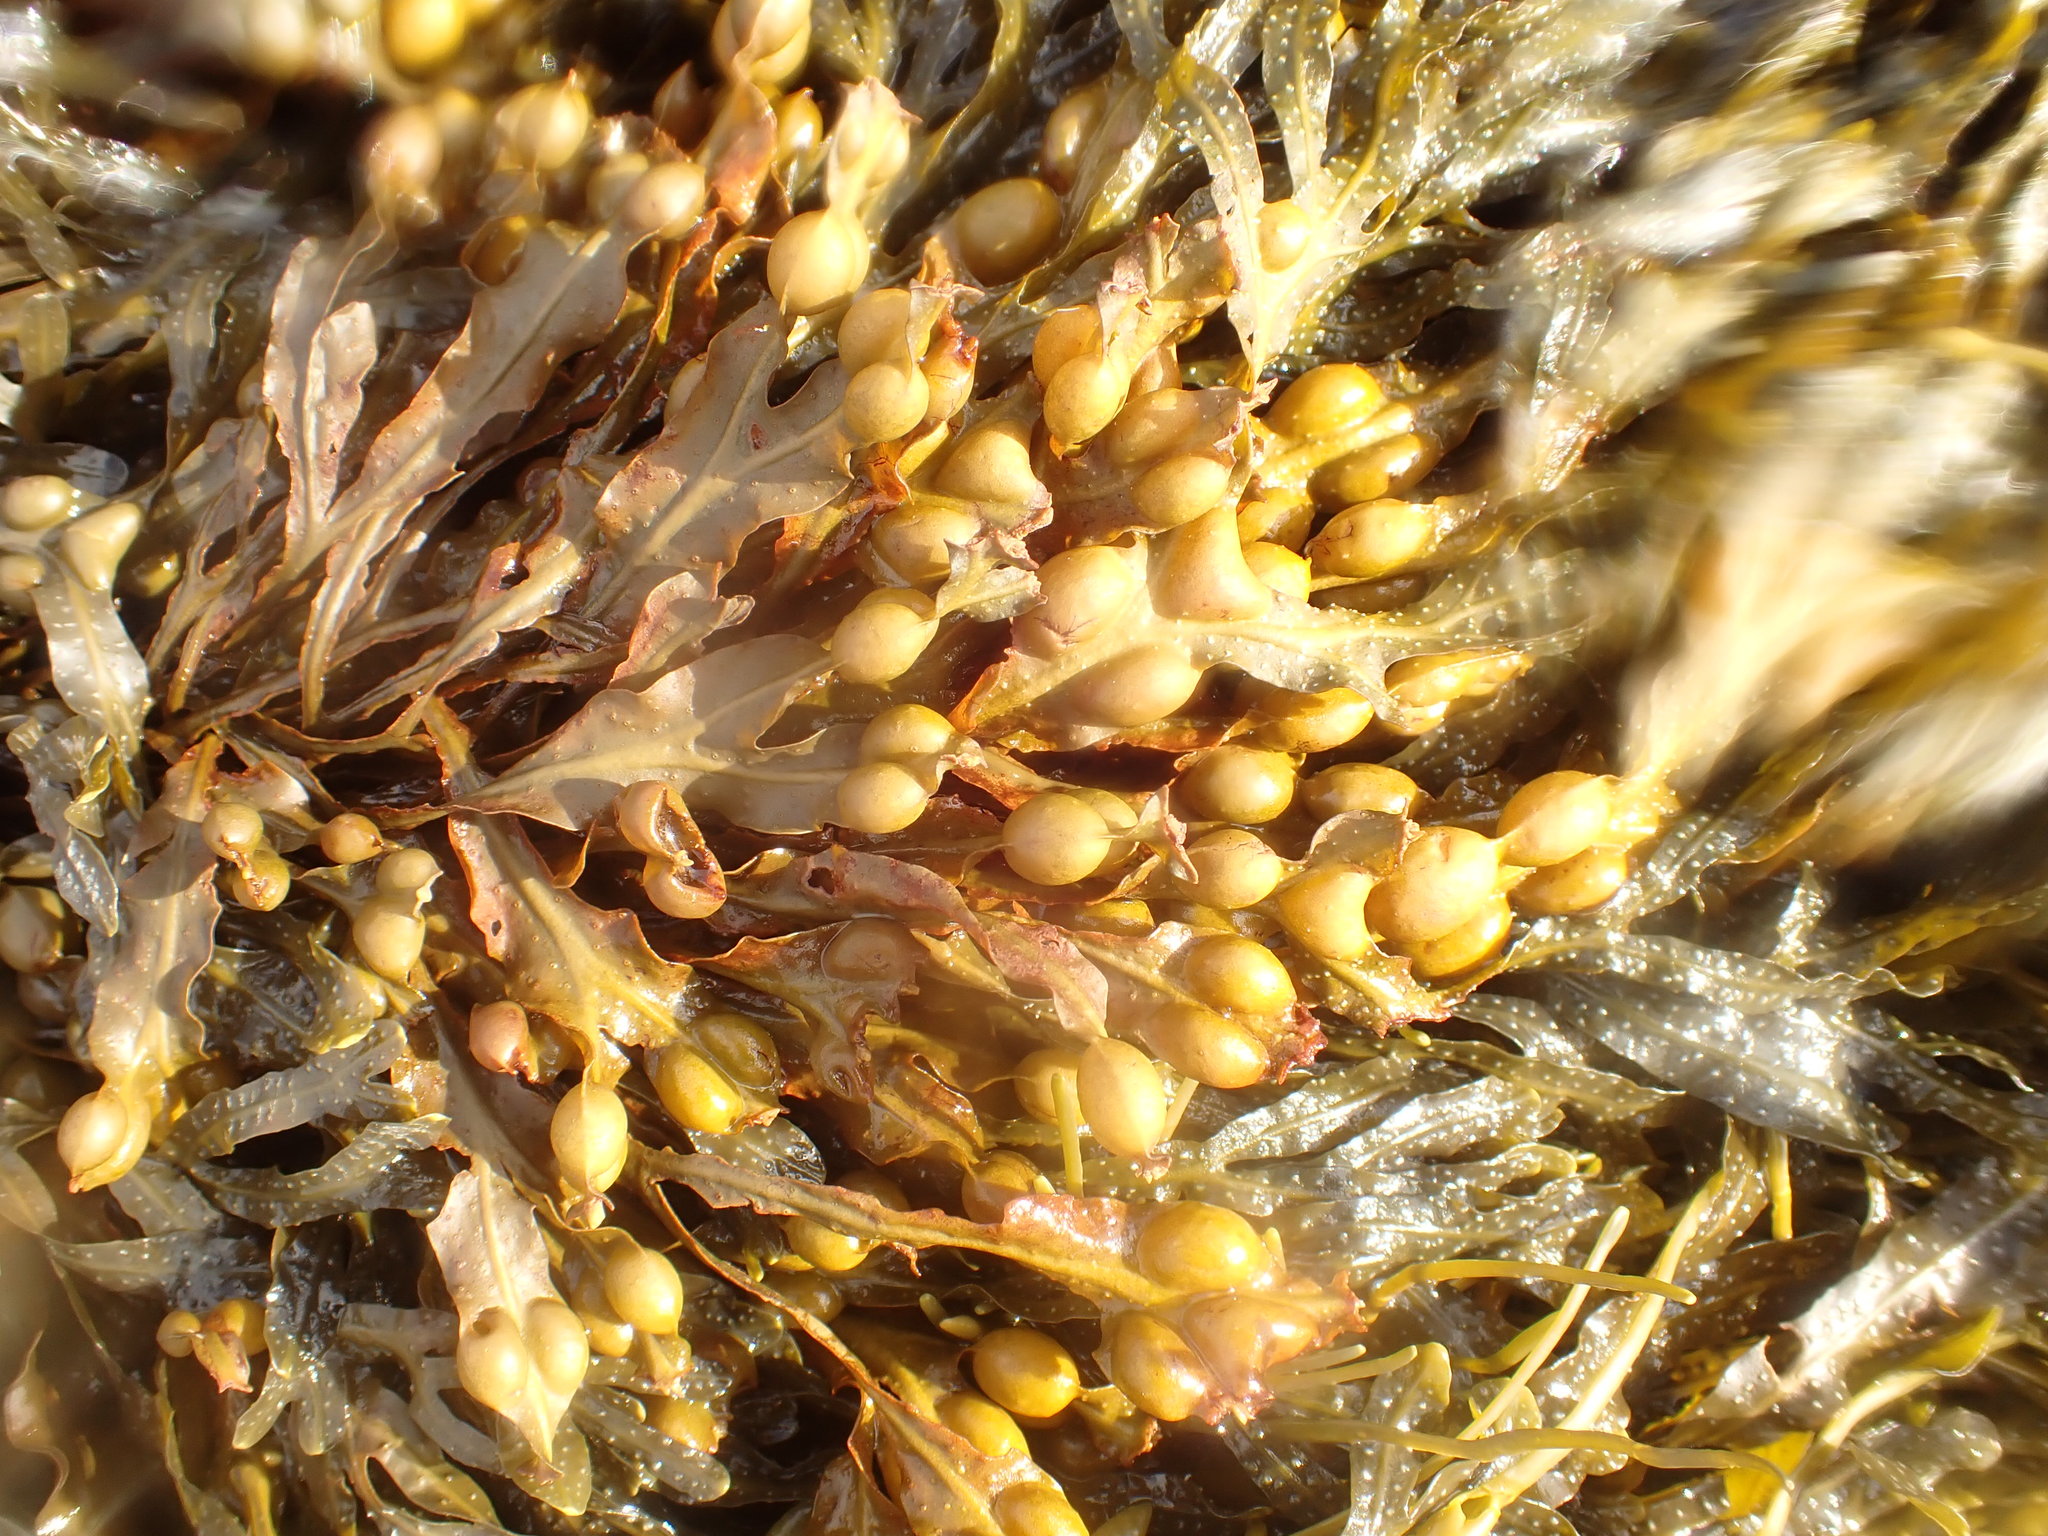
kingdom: Chromista
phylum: Ochrophyta
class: Phaeophyceae
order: Fucales
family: Fucaceae
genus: Fucus
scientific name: Fucus vesiculosus
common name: Bladder wrack
